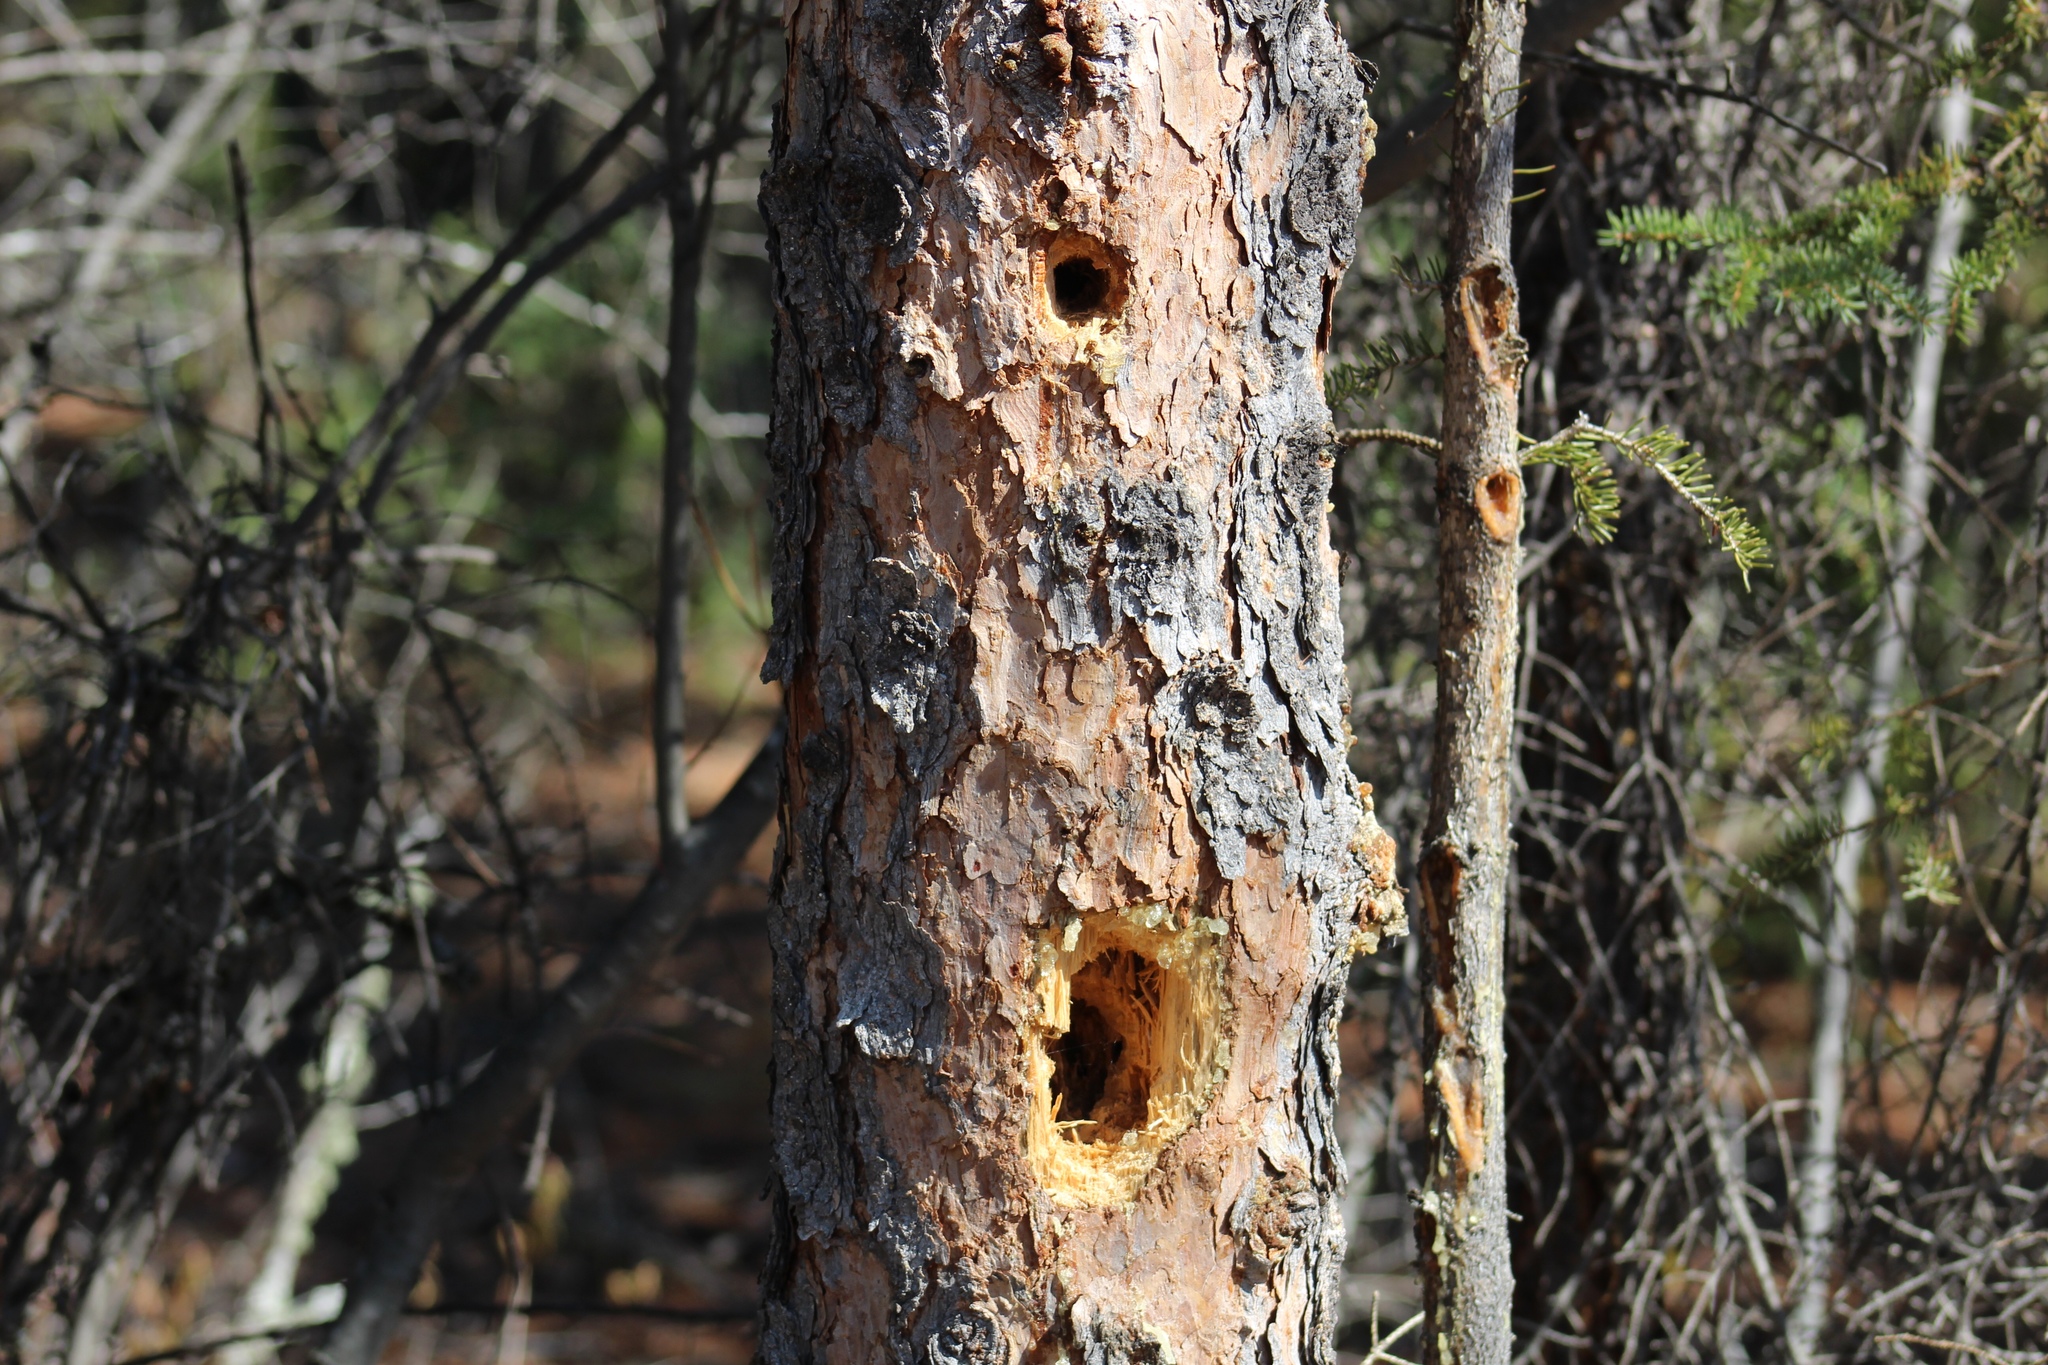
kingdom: Animalia
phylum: Chordata
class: Aves
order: Piciformes
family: Picidae
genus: Dryocopus
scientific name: Dryocopus pileatus
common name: Pileated woodpecker
